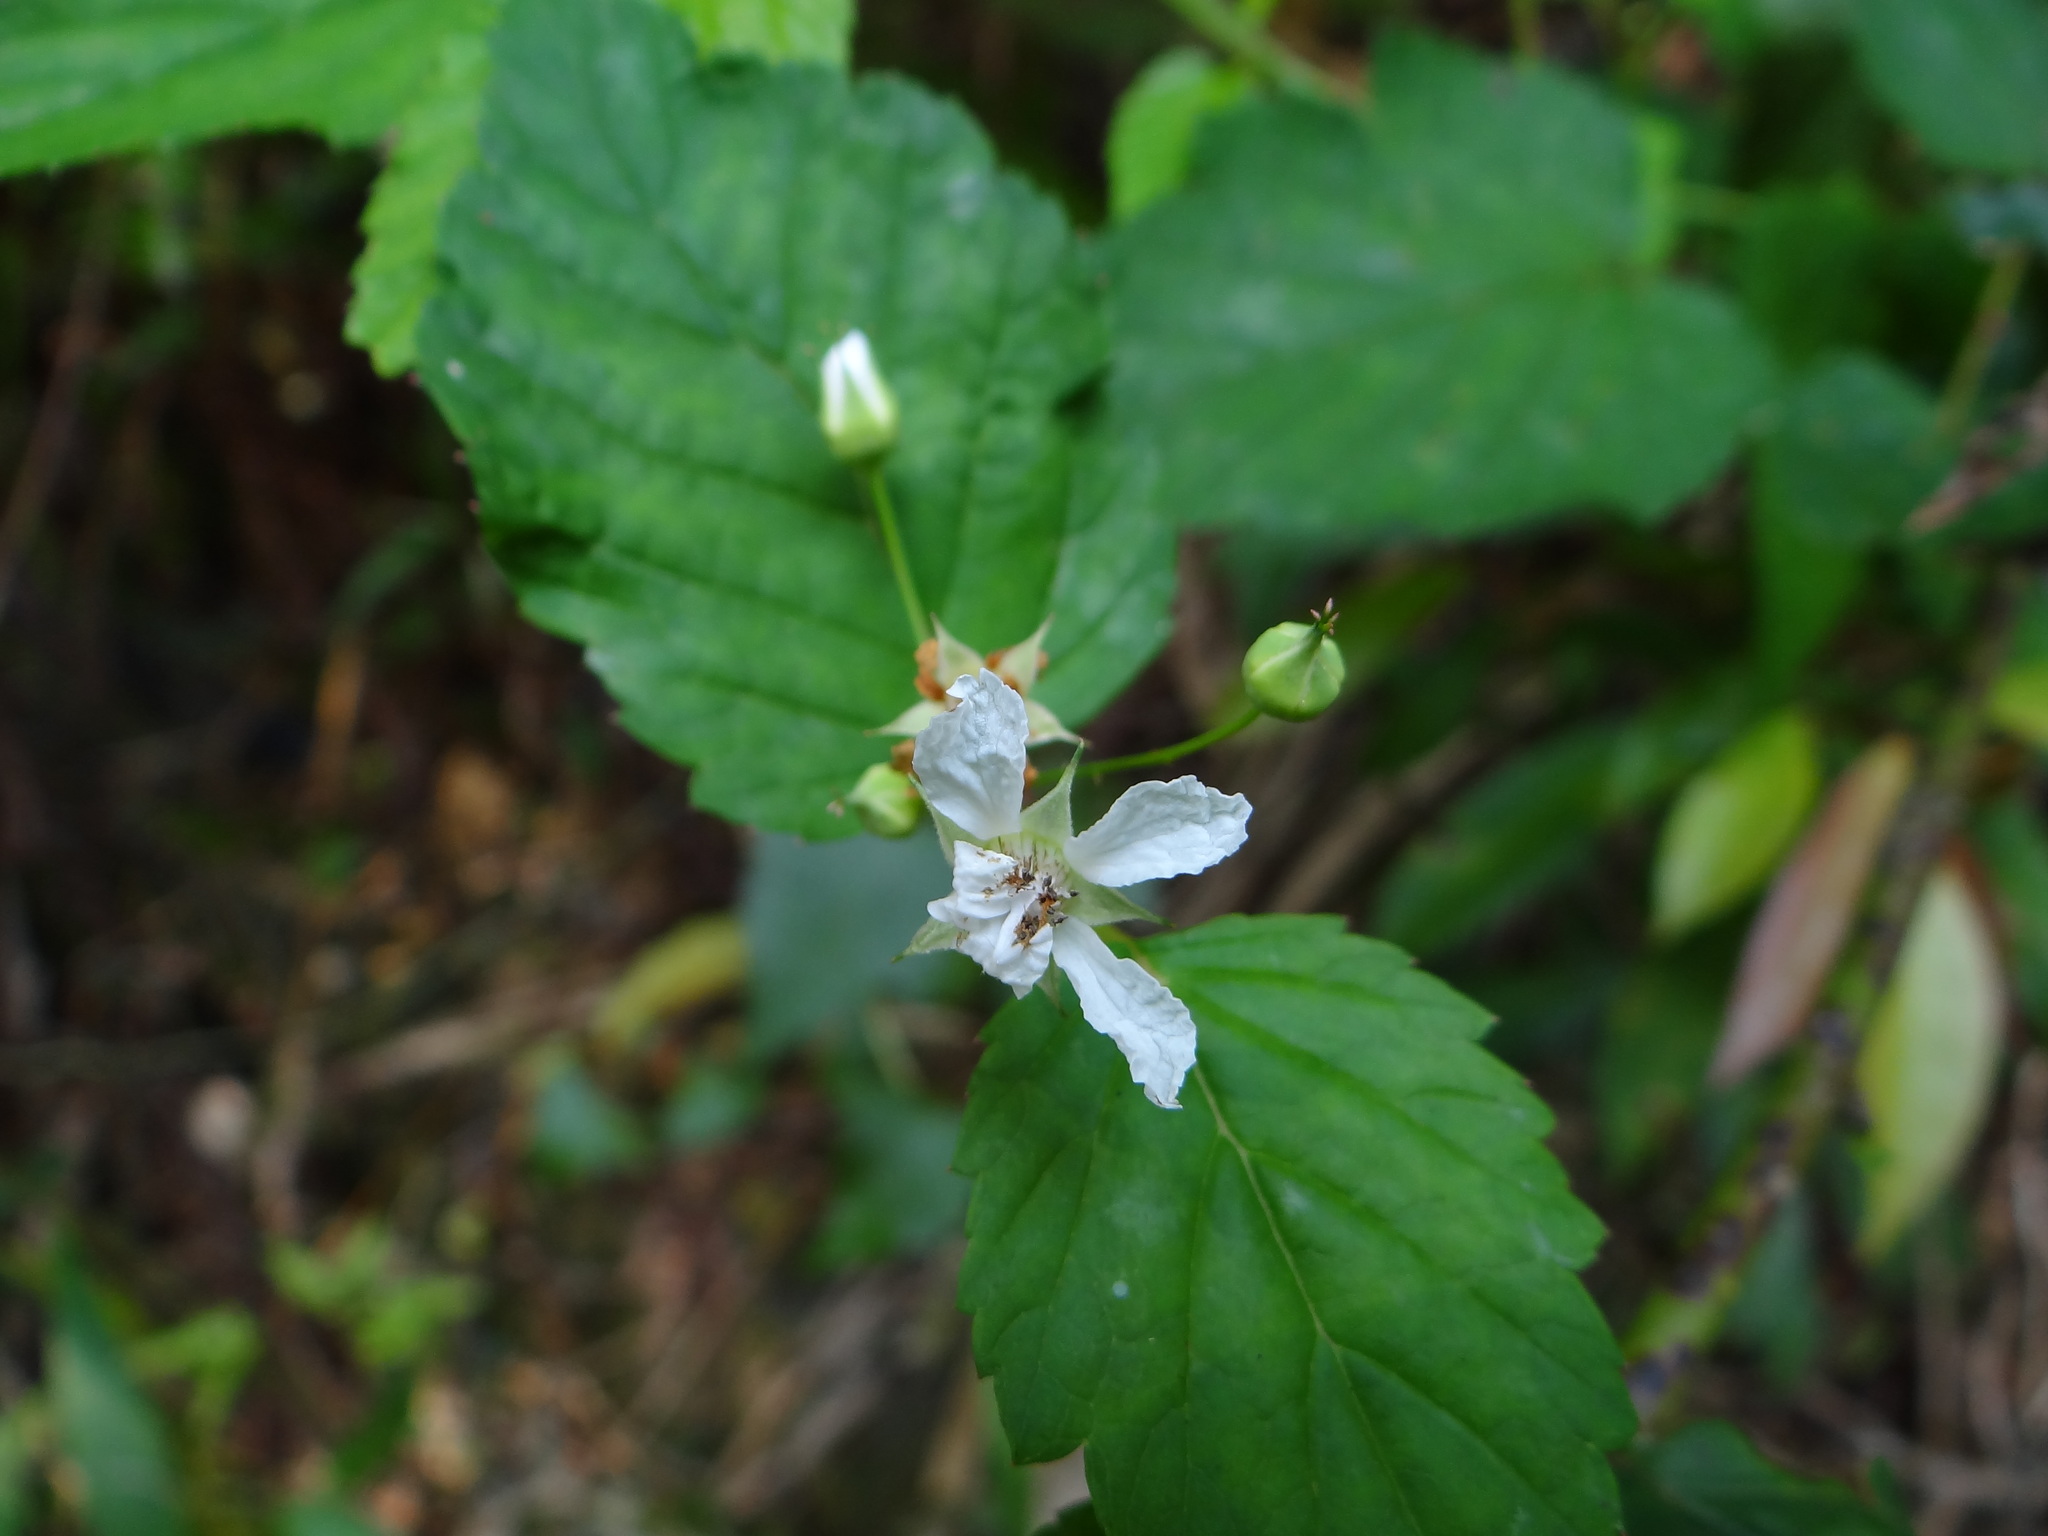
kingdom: Plantae
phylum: Tracheophyta
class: Magnoliopsida
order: Rosales
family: Rosaceae
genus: Rubus
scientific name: Rubus subcrataegifolius
